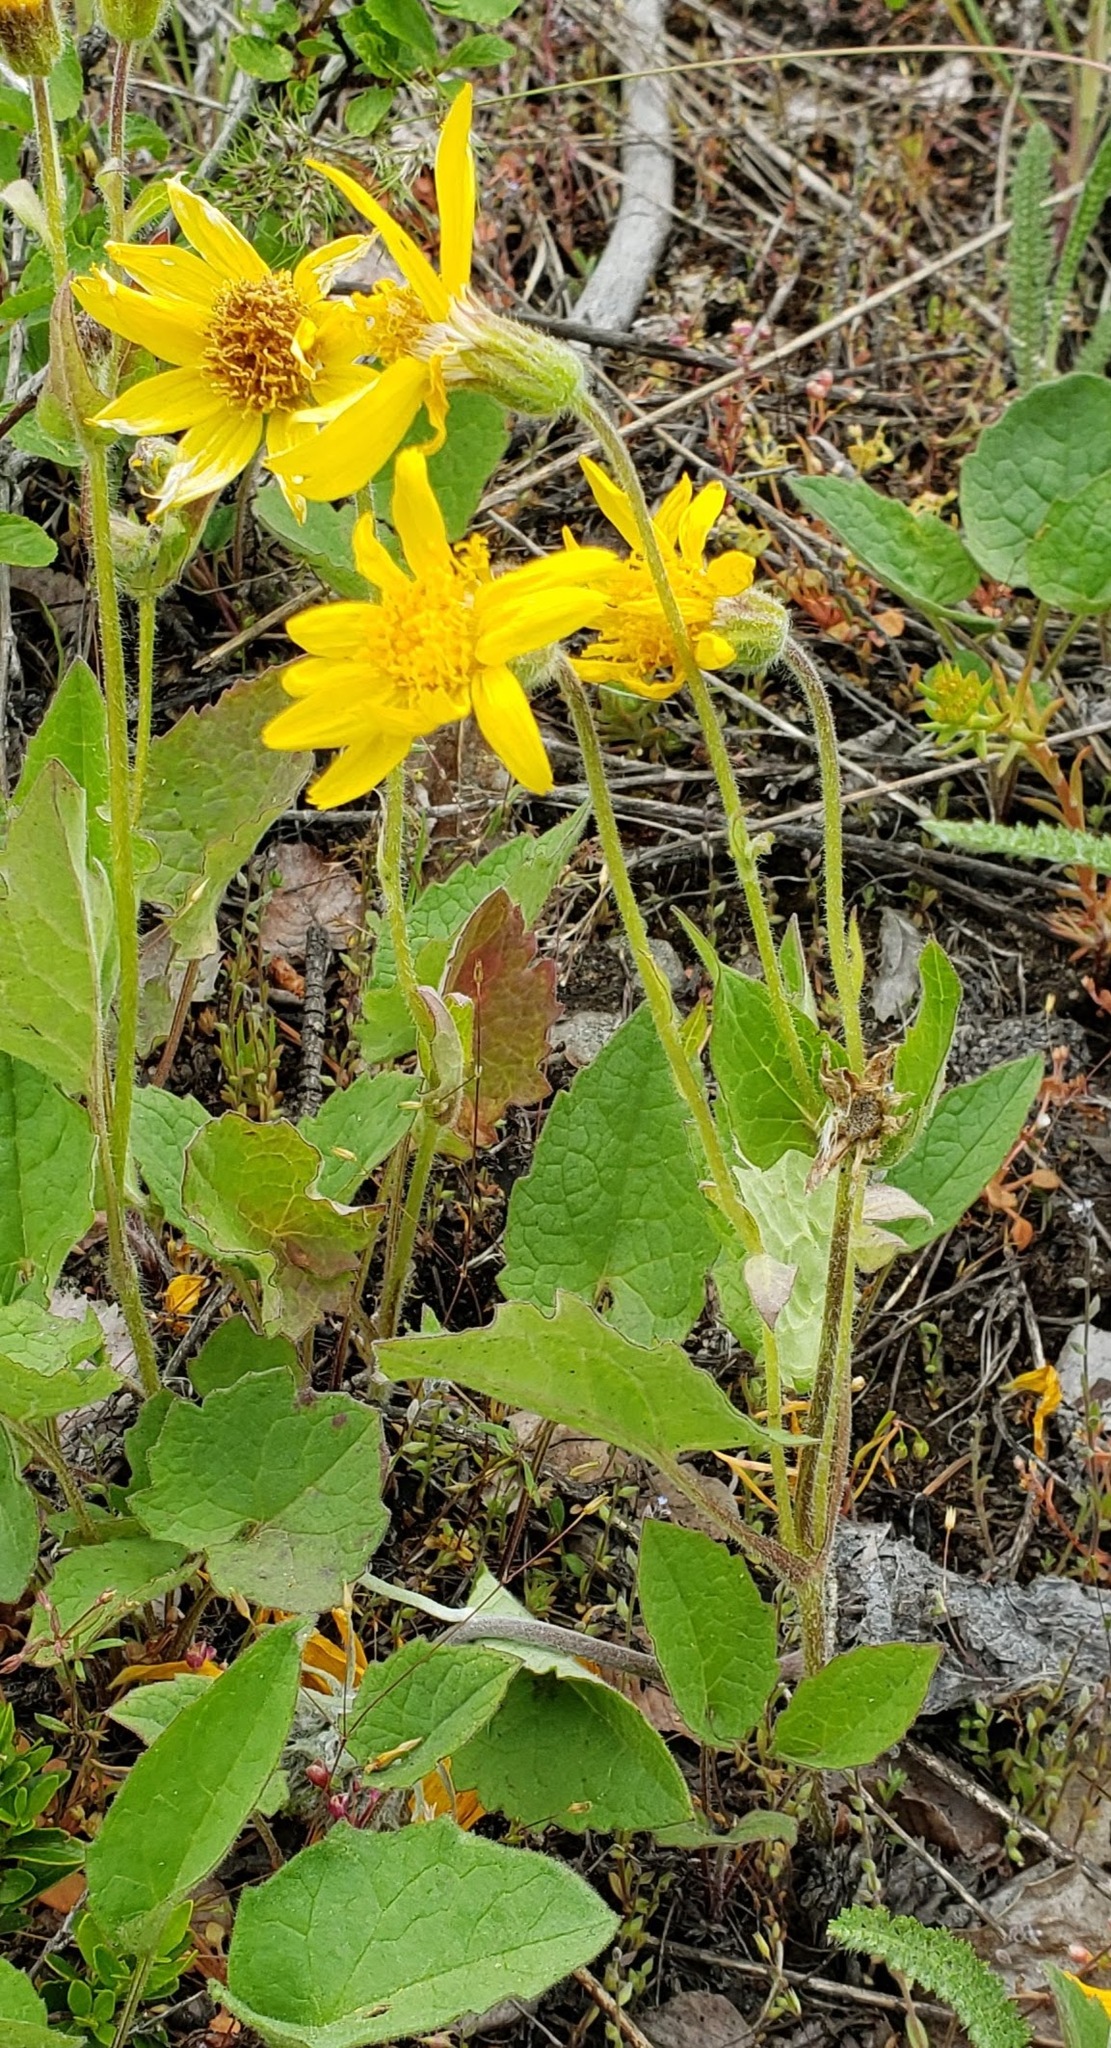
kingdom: Plantae
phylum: Tracheophyta
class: Magnoliopsida
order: Asterales
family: Asteraceae
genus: Arnica
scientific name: Arnica cordifolia
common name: Heart-leaf arnica
